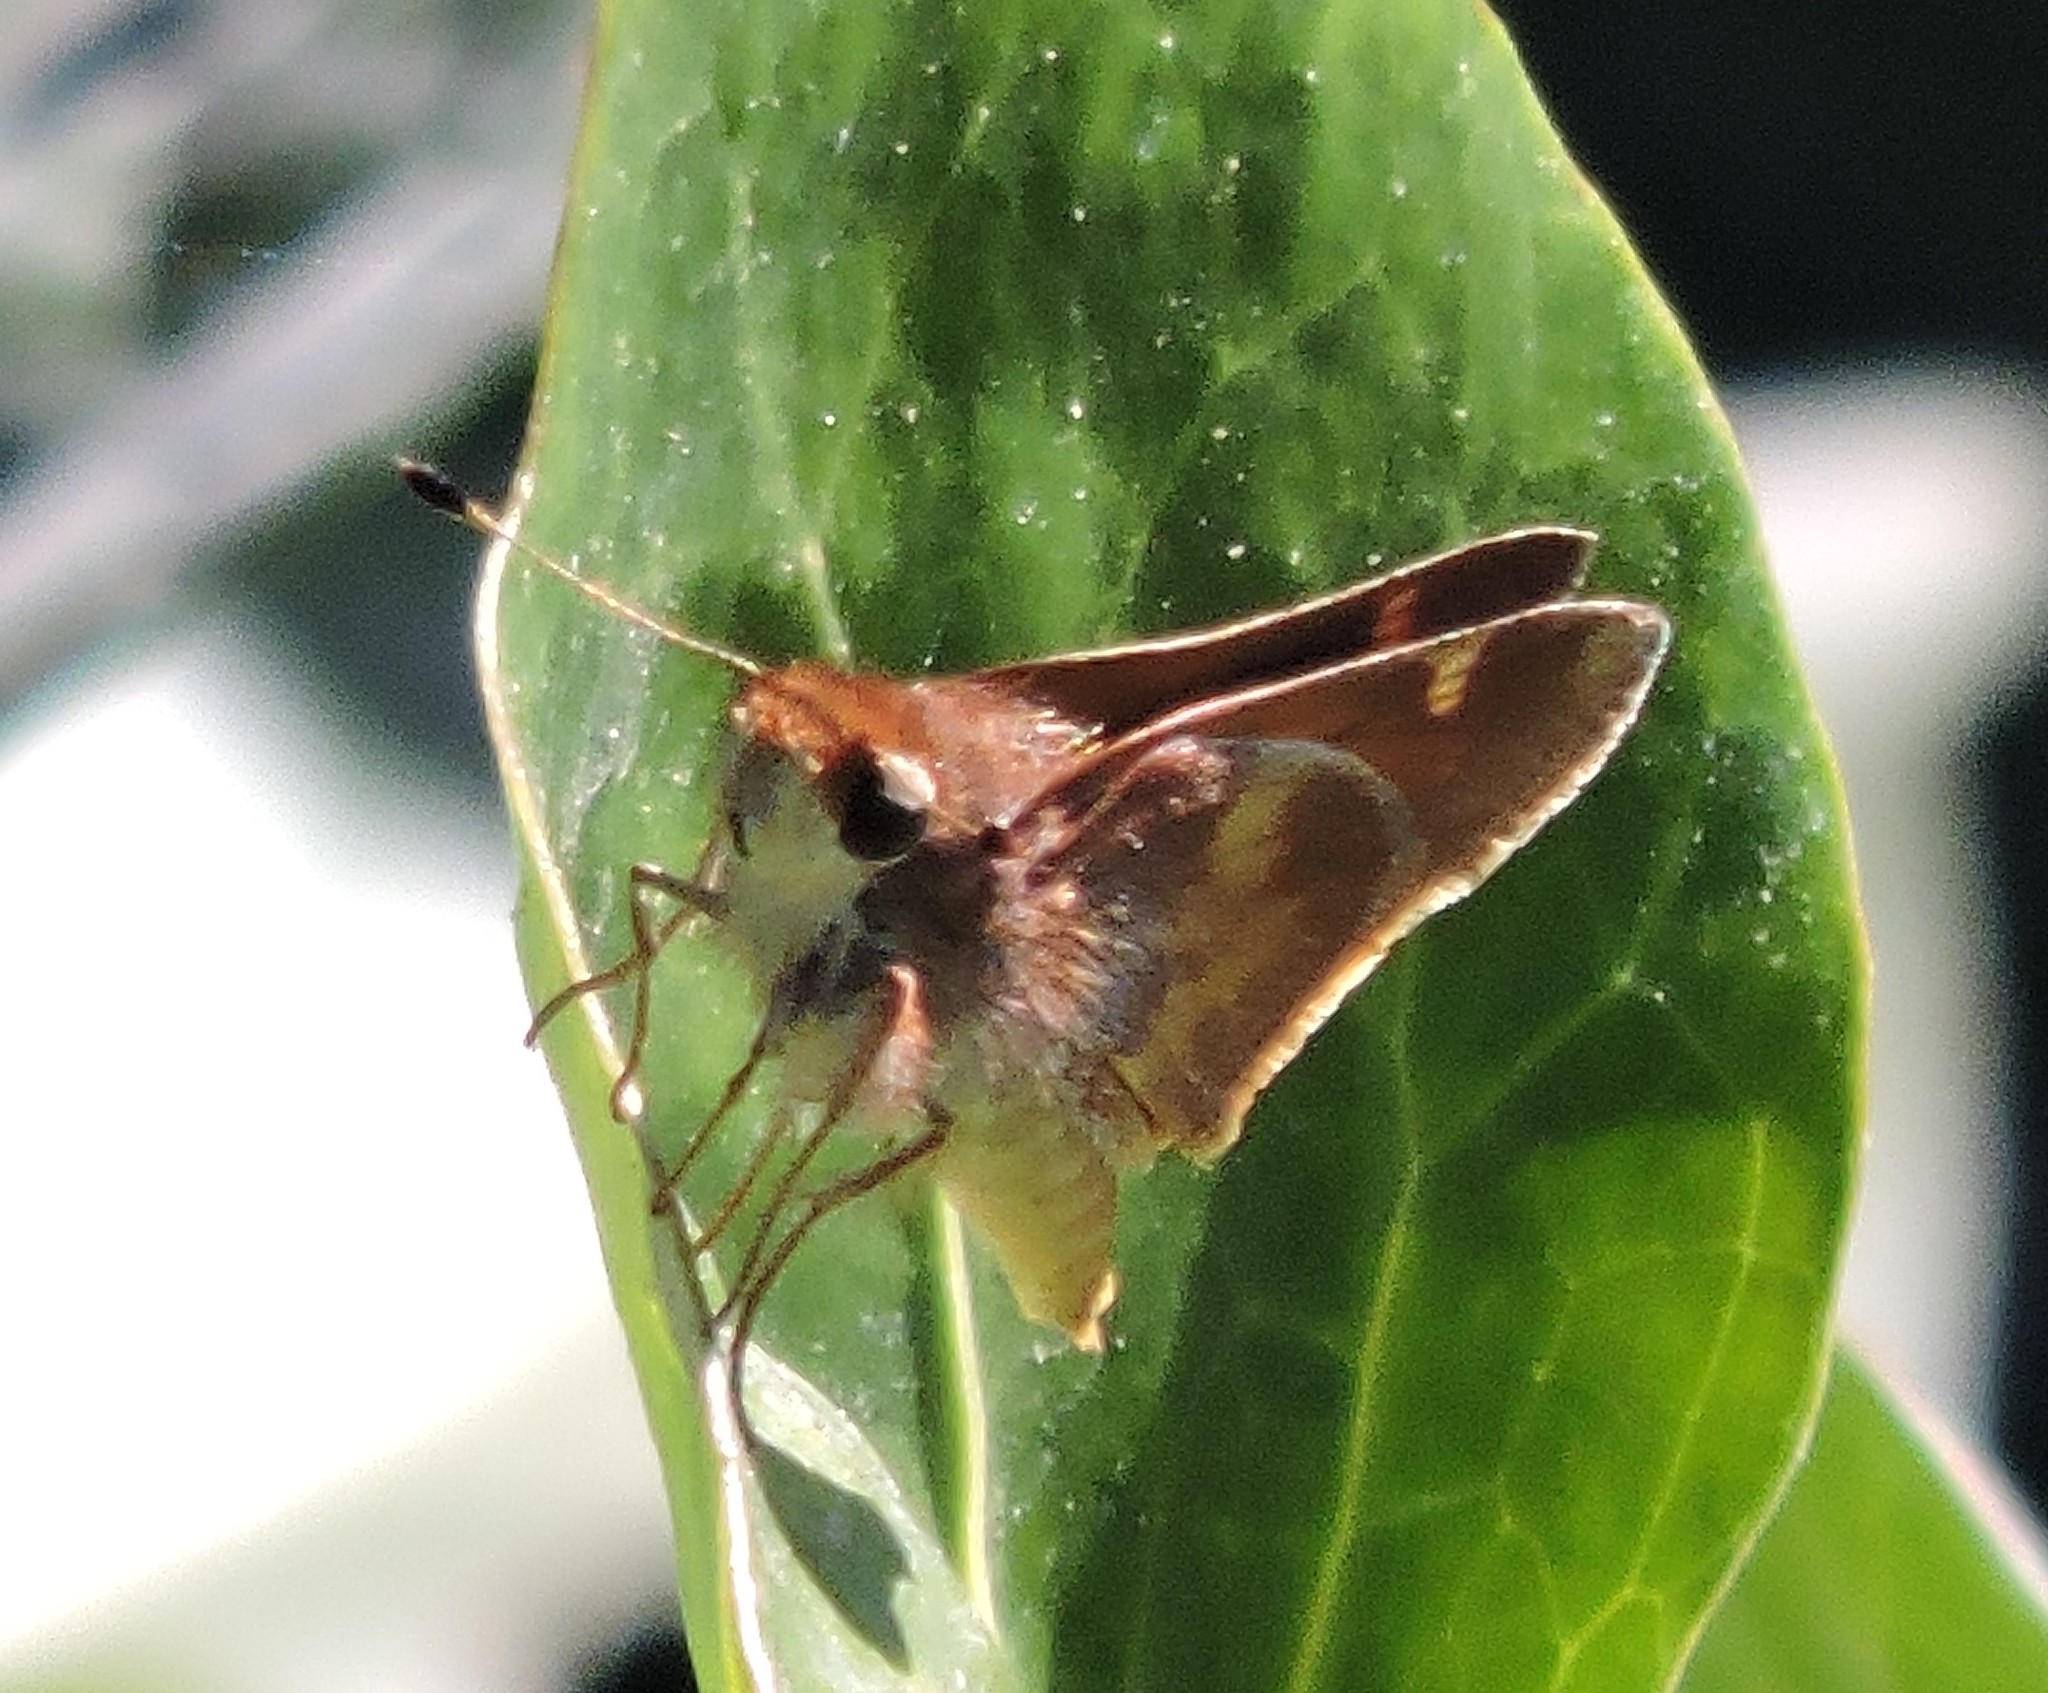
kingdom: Animalia
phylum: Arthropoda
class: Insecta
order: Lepidoptera
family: Hesperiidae
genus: Lon
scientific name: Lon melane
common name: Umber skipper
